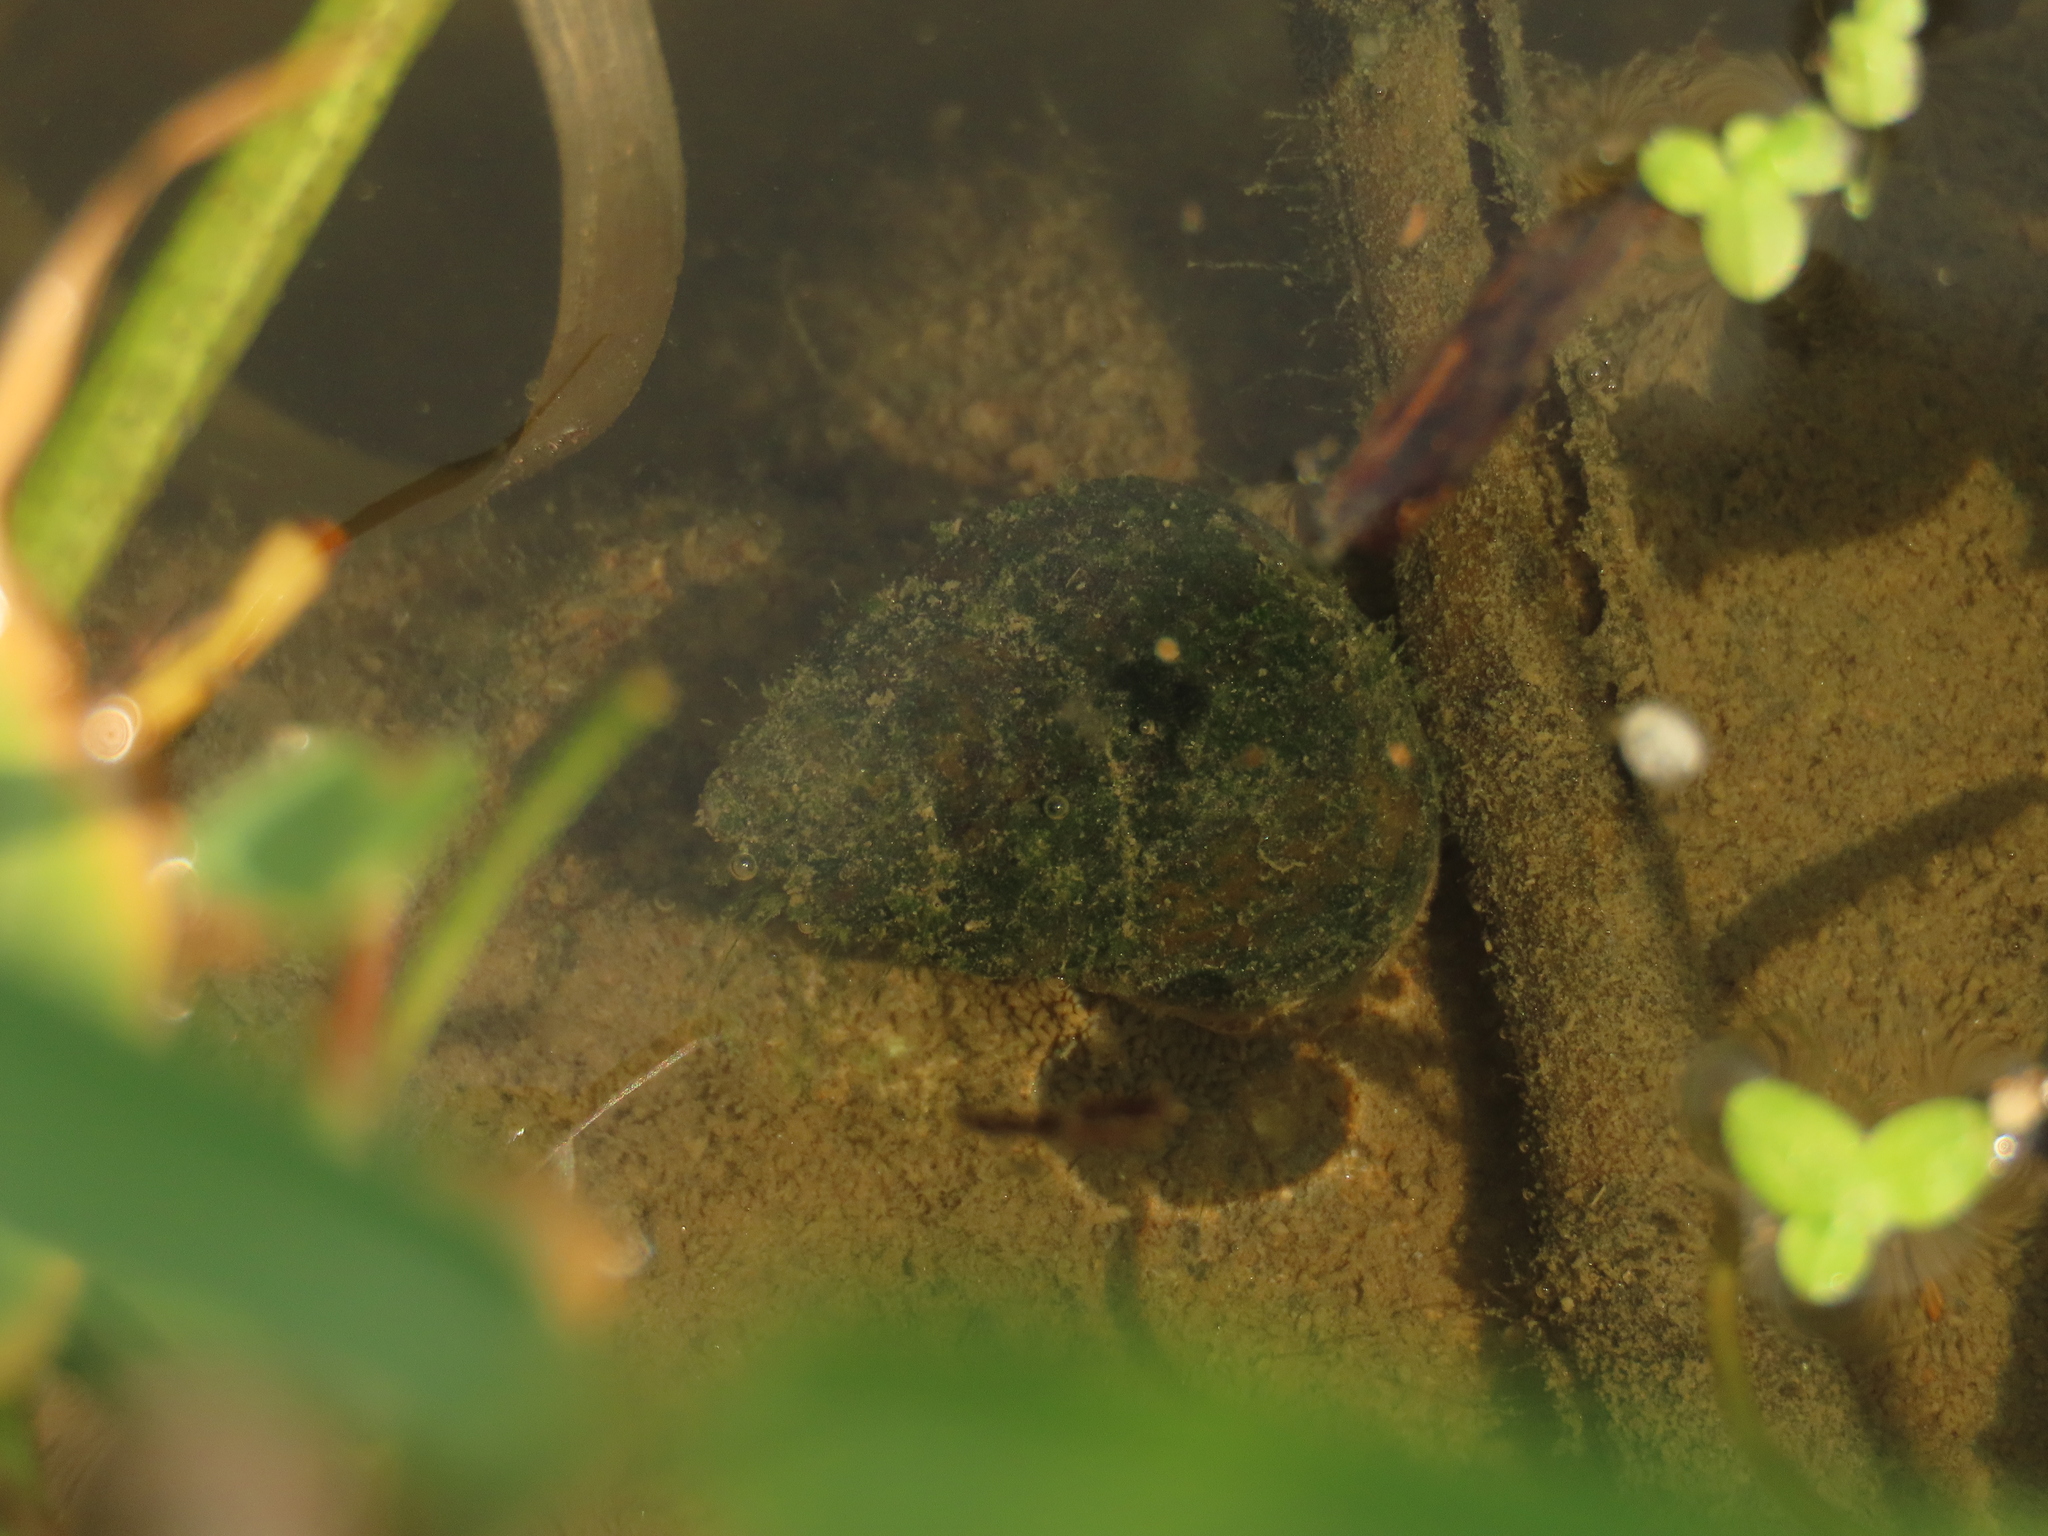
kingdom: Animalia
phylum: Mollusca
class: Gastropoda
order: Architaenioglossa
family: Viviparidae
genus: Sinotaia
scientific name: Sinotaia quadrata
